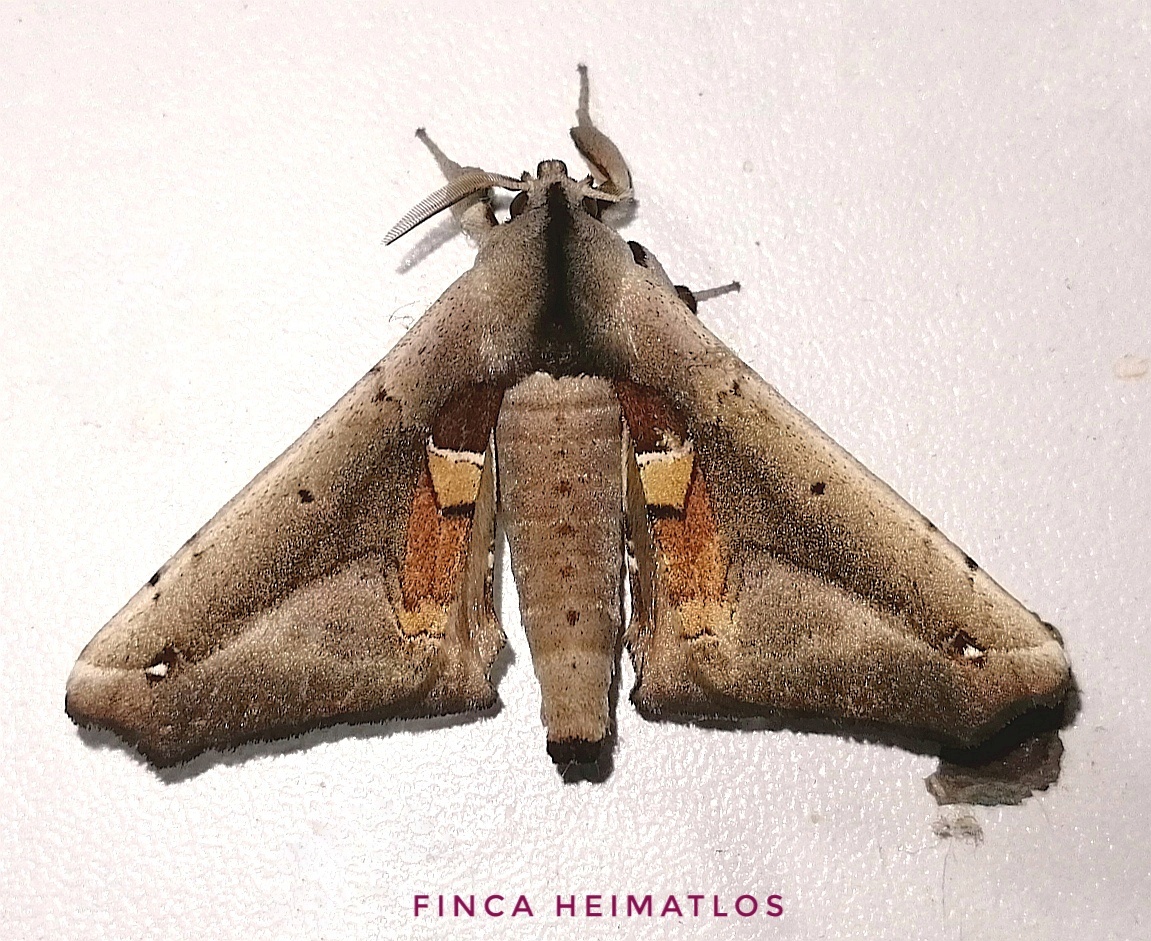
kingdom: Animalia
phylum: Arthropoda
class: Insecta
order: Lepidoptera
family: Apatelodidae
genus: Hygrochroa
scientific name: Hygrochroa Apatelodes dorrace
